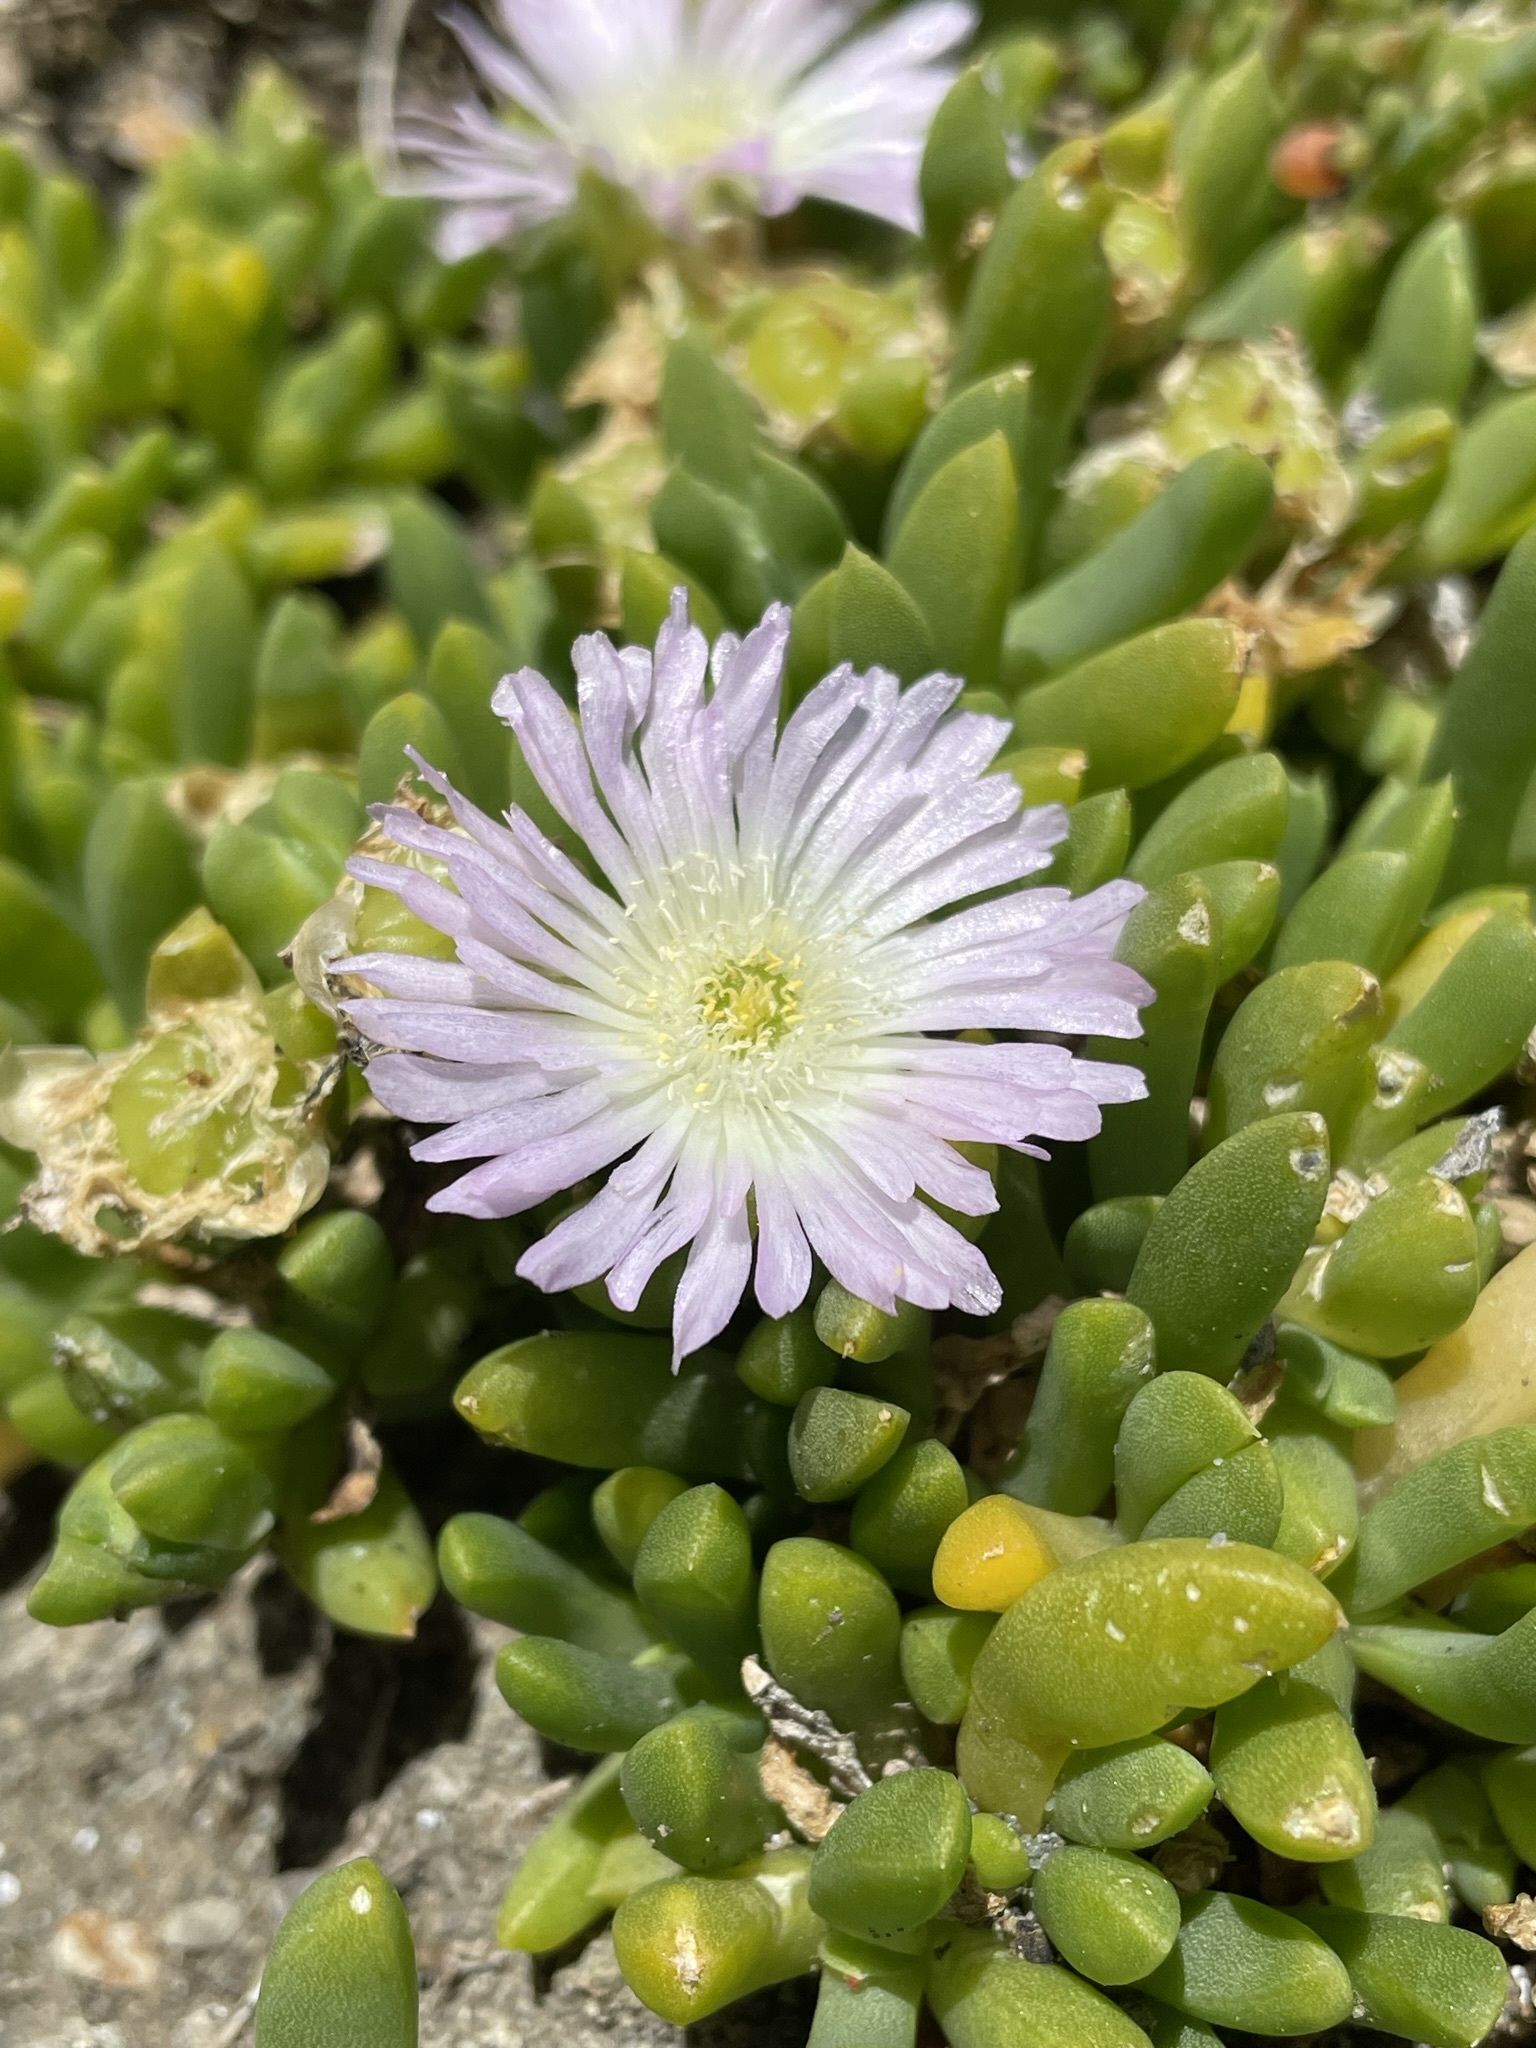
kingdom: Plantae
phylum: Tracheophyta
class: Magnoliopsida
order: Caryophyllales
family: Aizoaceae
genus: Disphyma
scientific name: Disphyma australe
